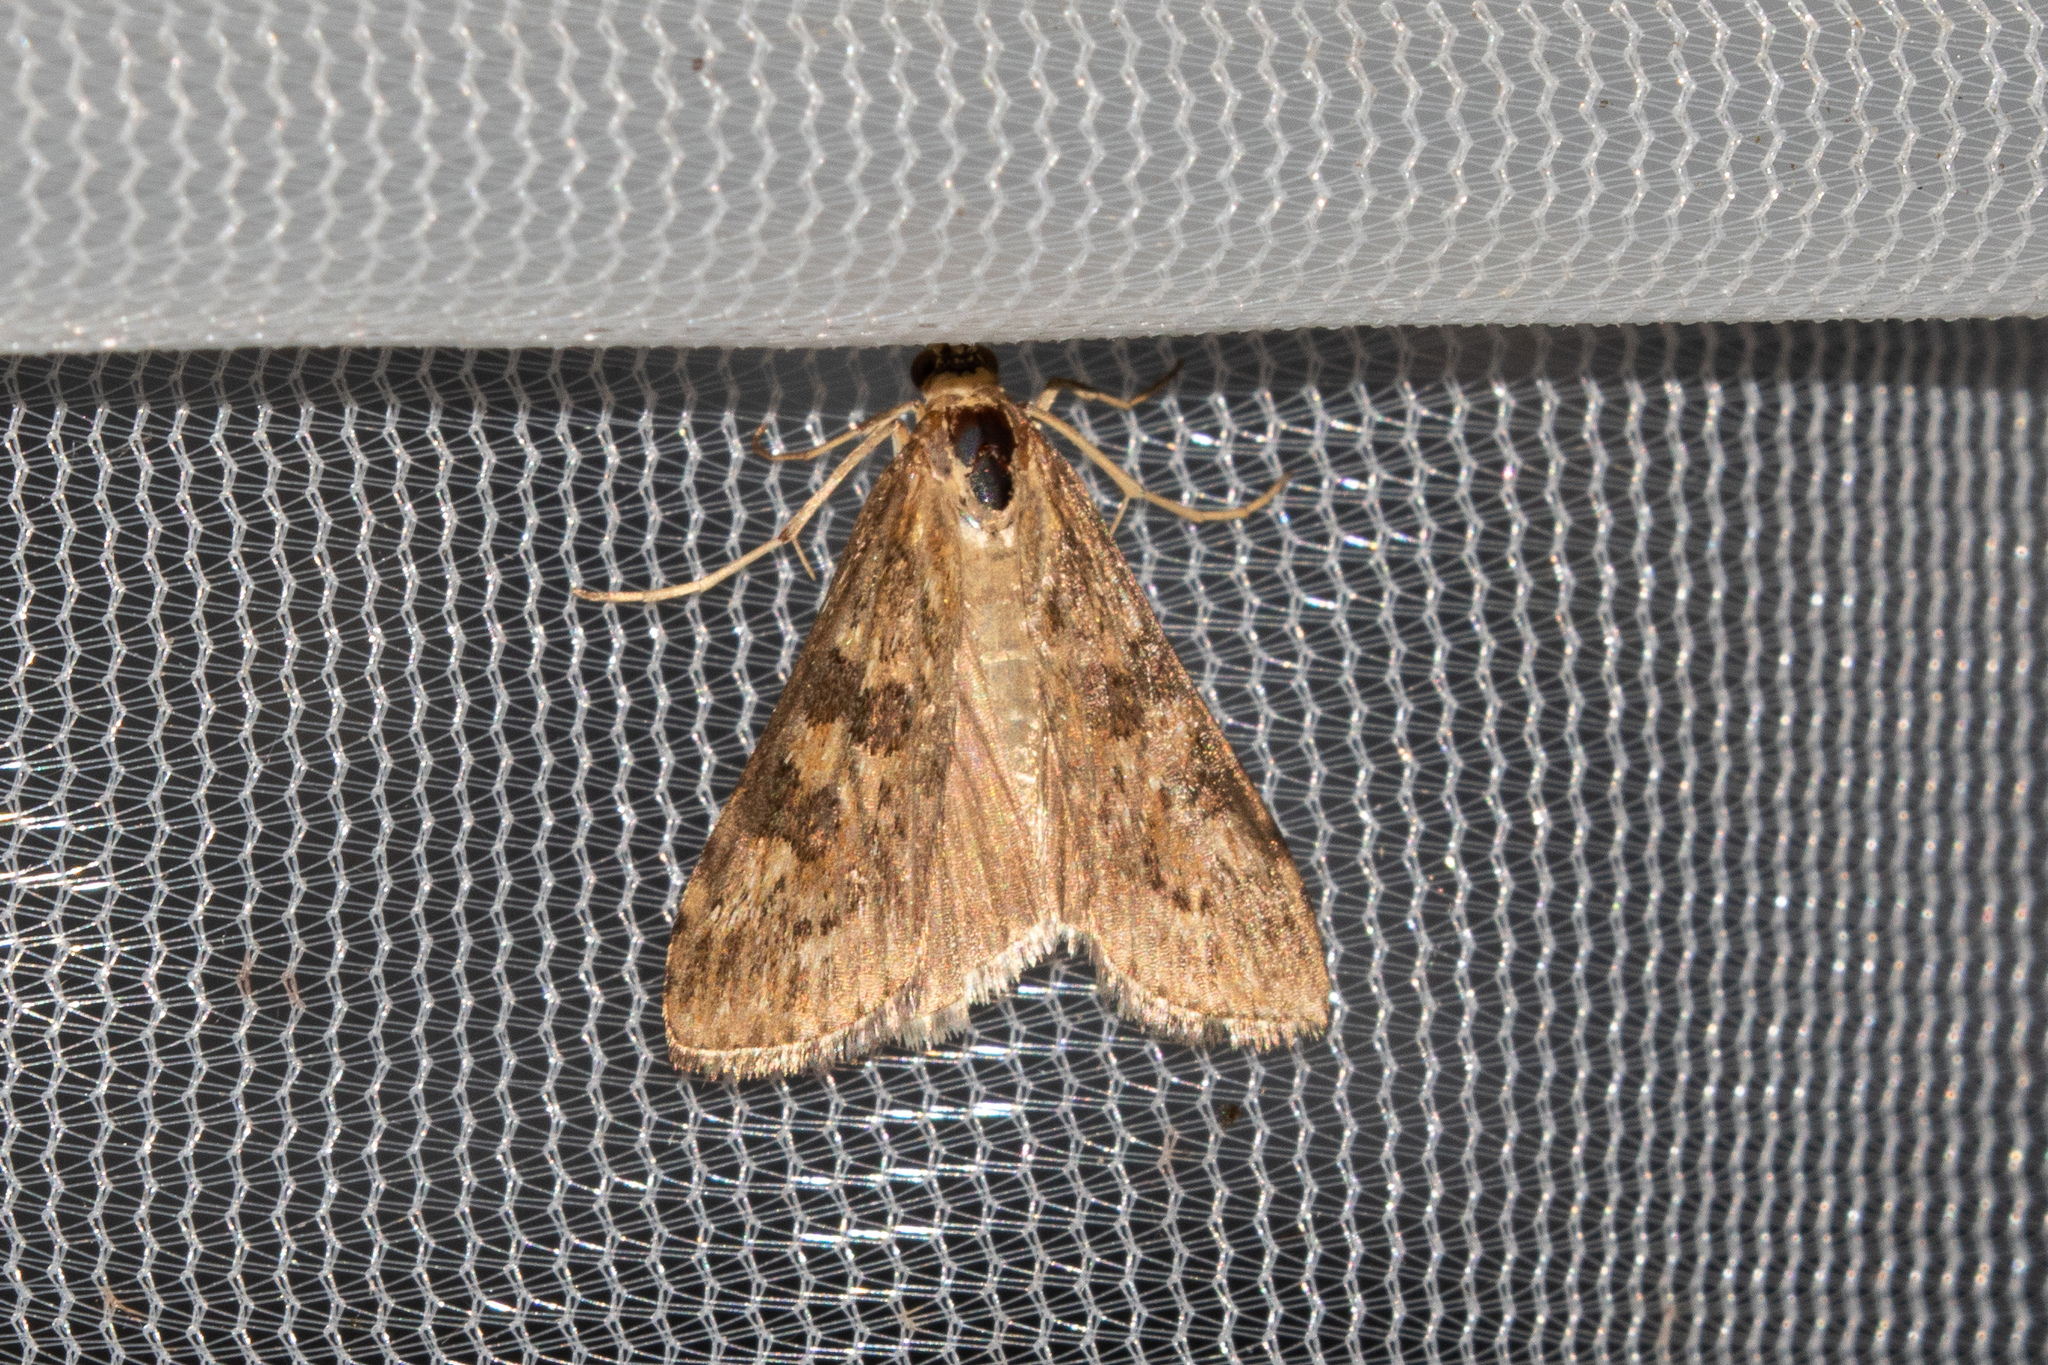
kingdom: Animalia
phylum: Arthropoda
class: Insecta
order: Lepidoptera
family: Crambidae
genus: Nomophila
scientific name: Nomophila nearctica
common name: American rush veneer
